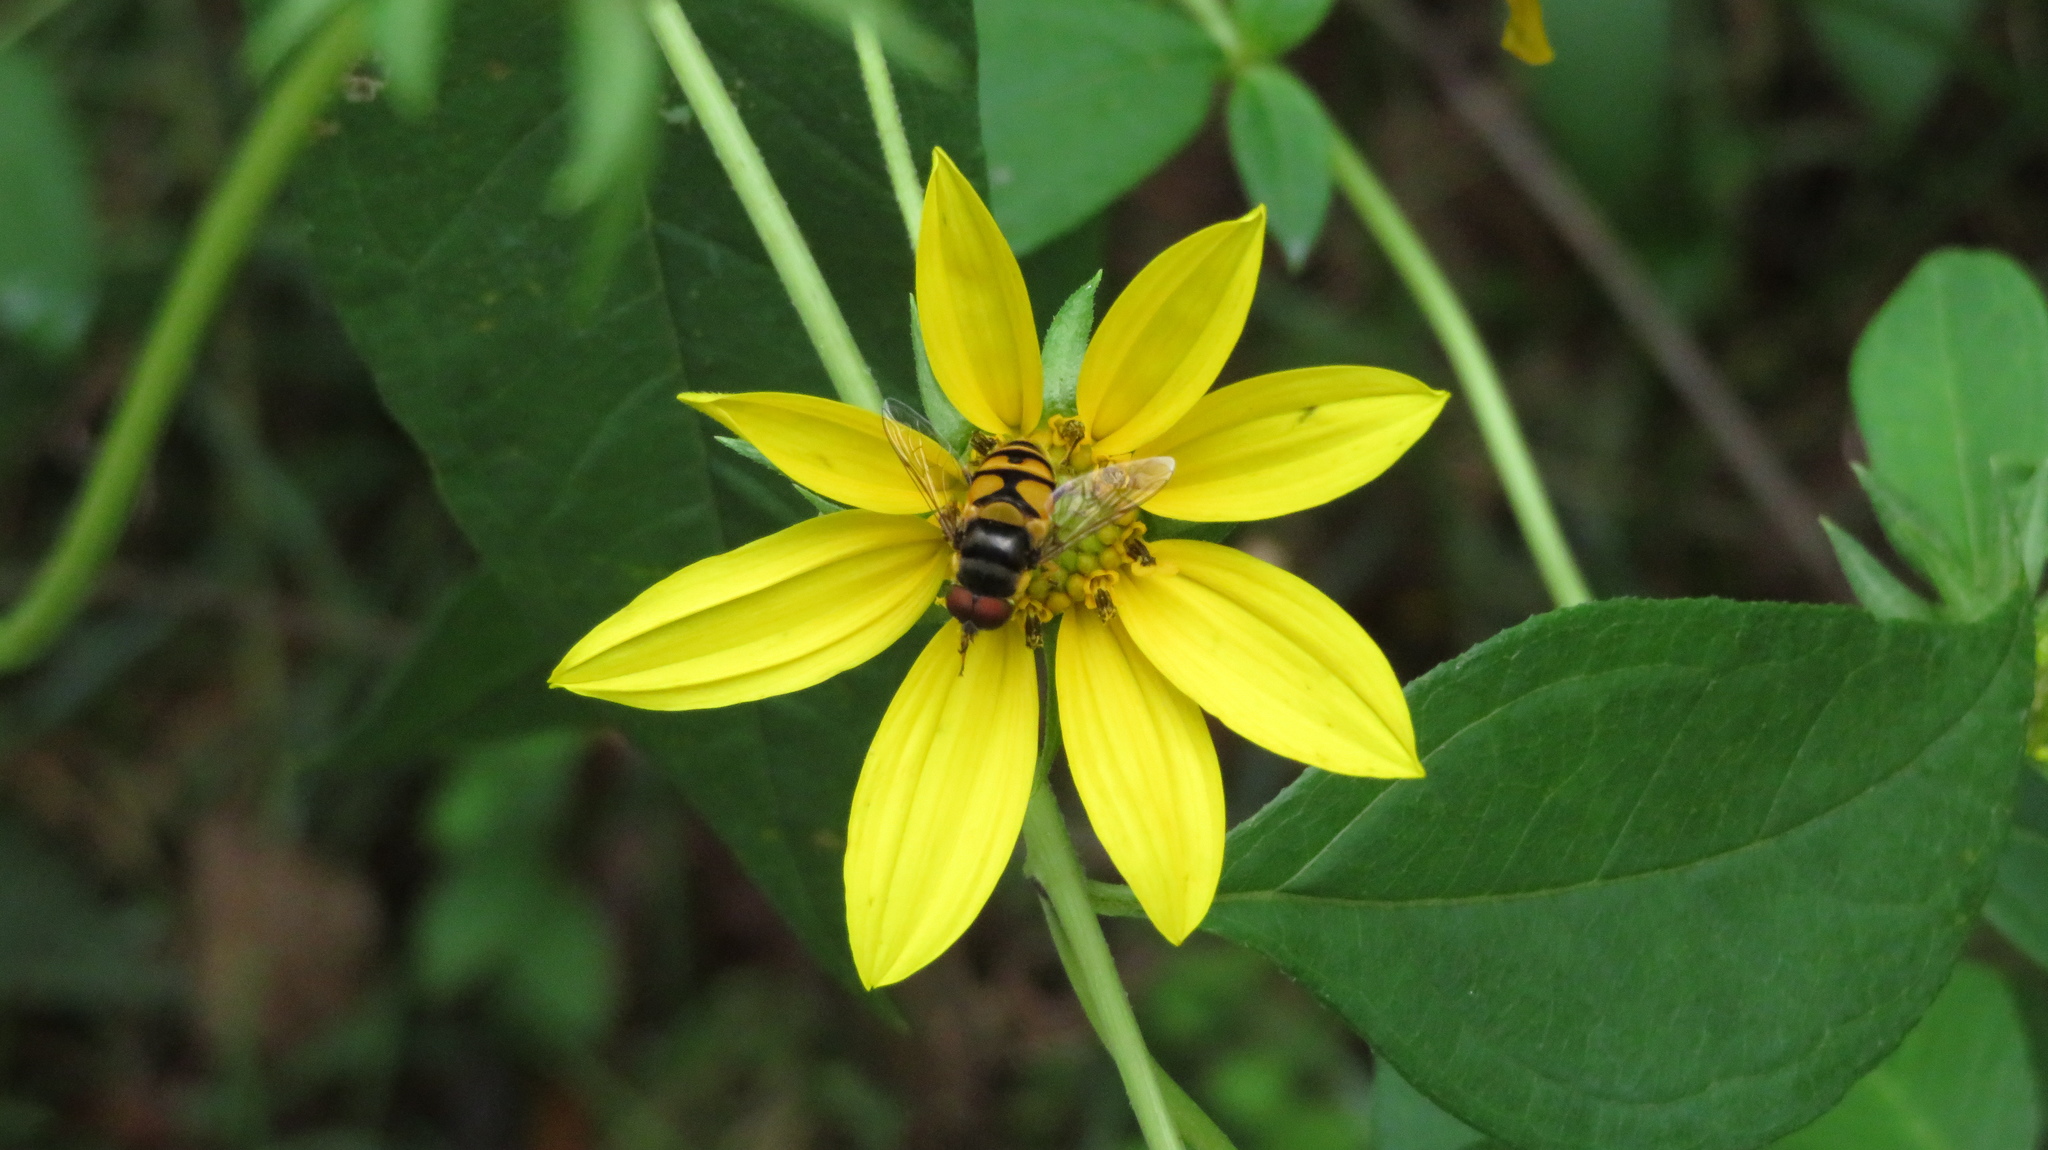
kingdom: Animalia
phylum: Arthropoda
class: Insecta
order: Diptera
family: Syrphidae
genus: Eristalis
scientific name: Eristalis transversa
